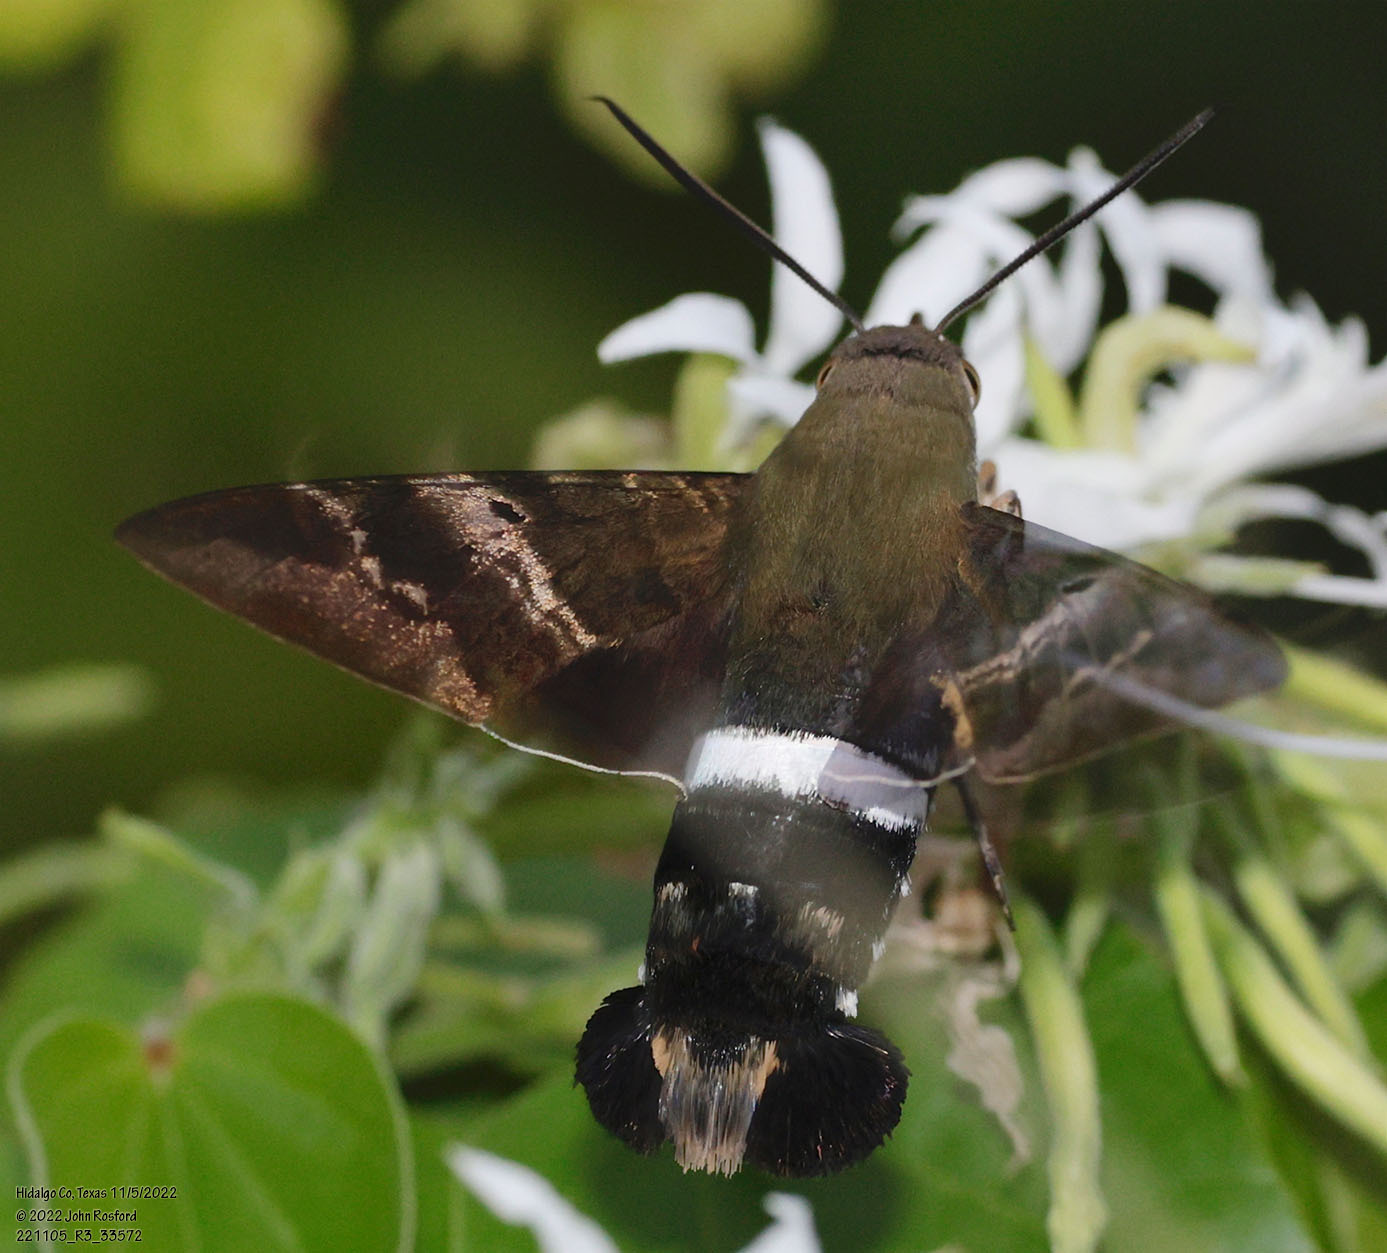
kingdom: Animalia
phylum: Arthropoda
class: Insecta
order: Lepidoptera
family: Sphingidae
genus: Aellopos
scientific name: Aellopos titan
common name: Titan sphinx
